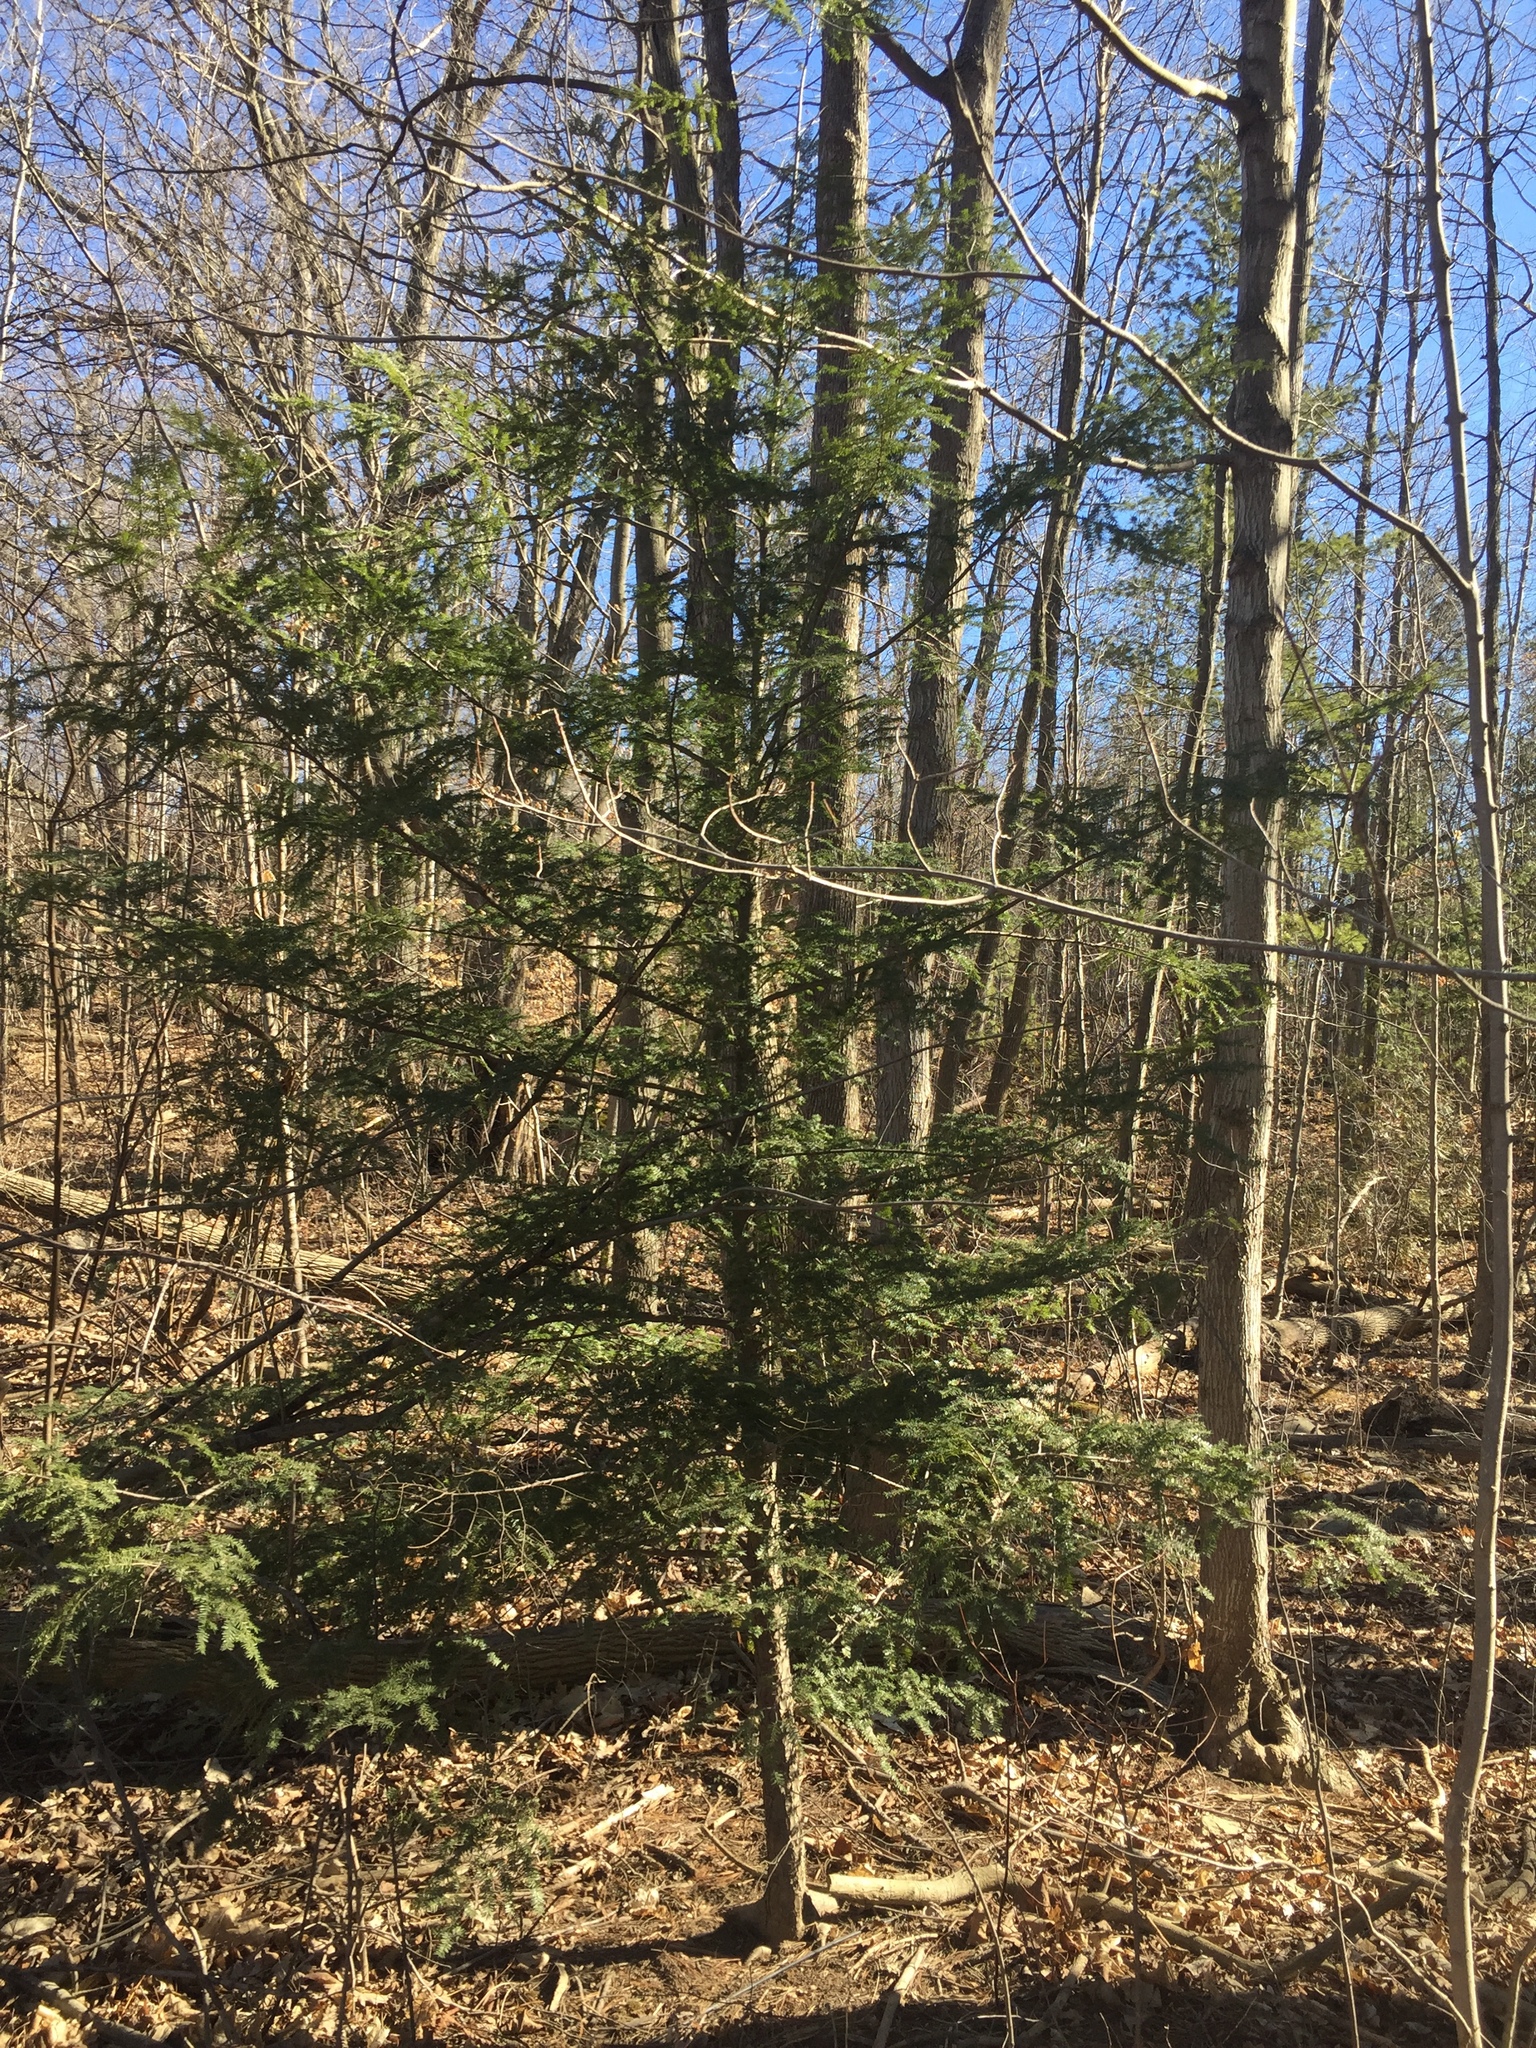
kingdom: Plantae
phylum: Tracheophyta
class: Pinopsida
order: Pinales
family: Pinaceae
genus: Tsuga
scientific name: Tsuga canadensis
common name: Eastern hemlock
